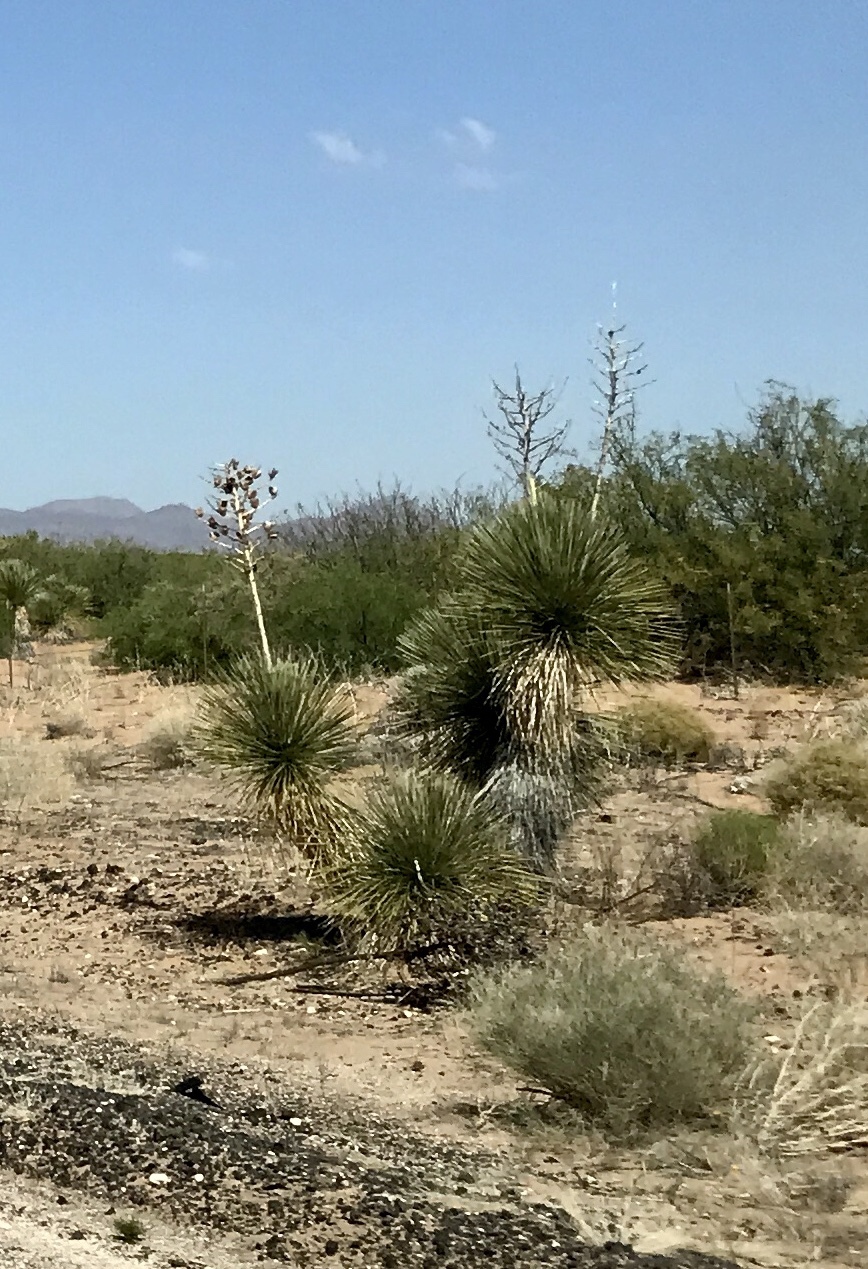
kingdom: Plantae
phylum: Tracheophyta
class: Liliopsida
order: Asparagales
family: Asparagaceae
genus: Yucca
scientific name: Yucca elata
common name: Palmella
